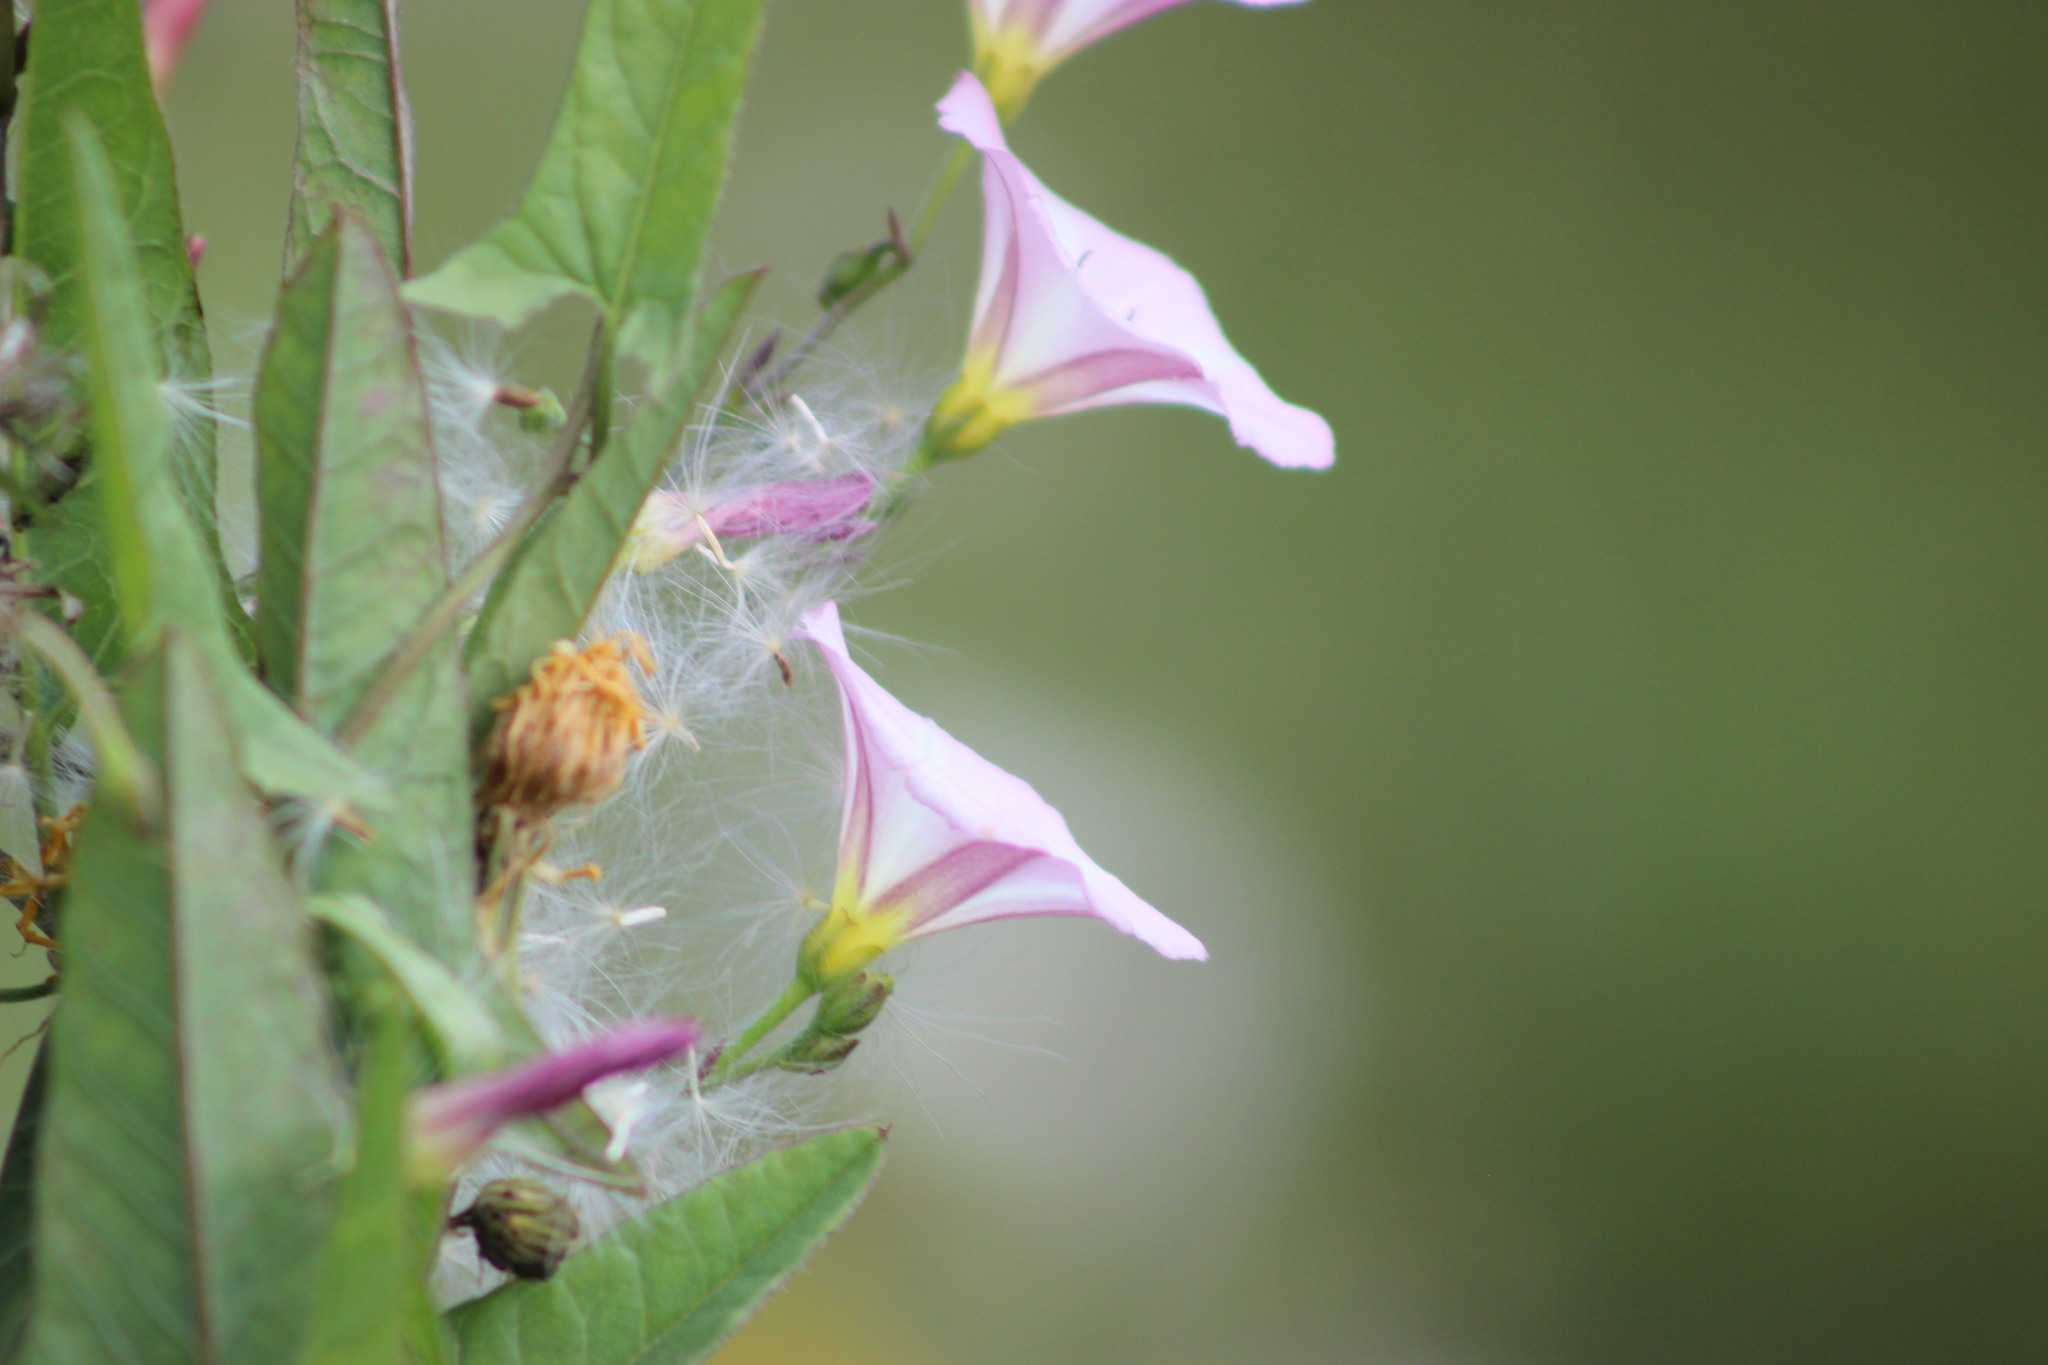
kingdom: Plantae
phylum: Tracheophyta
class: Magnoliopsida
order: Solanales
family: Convolvulaceae
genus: Convolvulus
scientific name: Convolvulus arvensis
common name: Field bindweed
